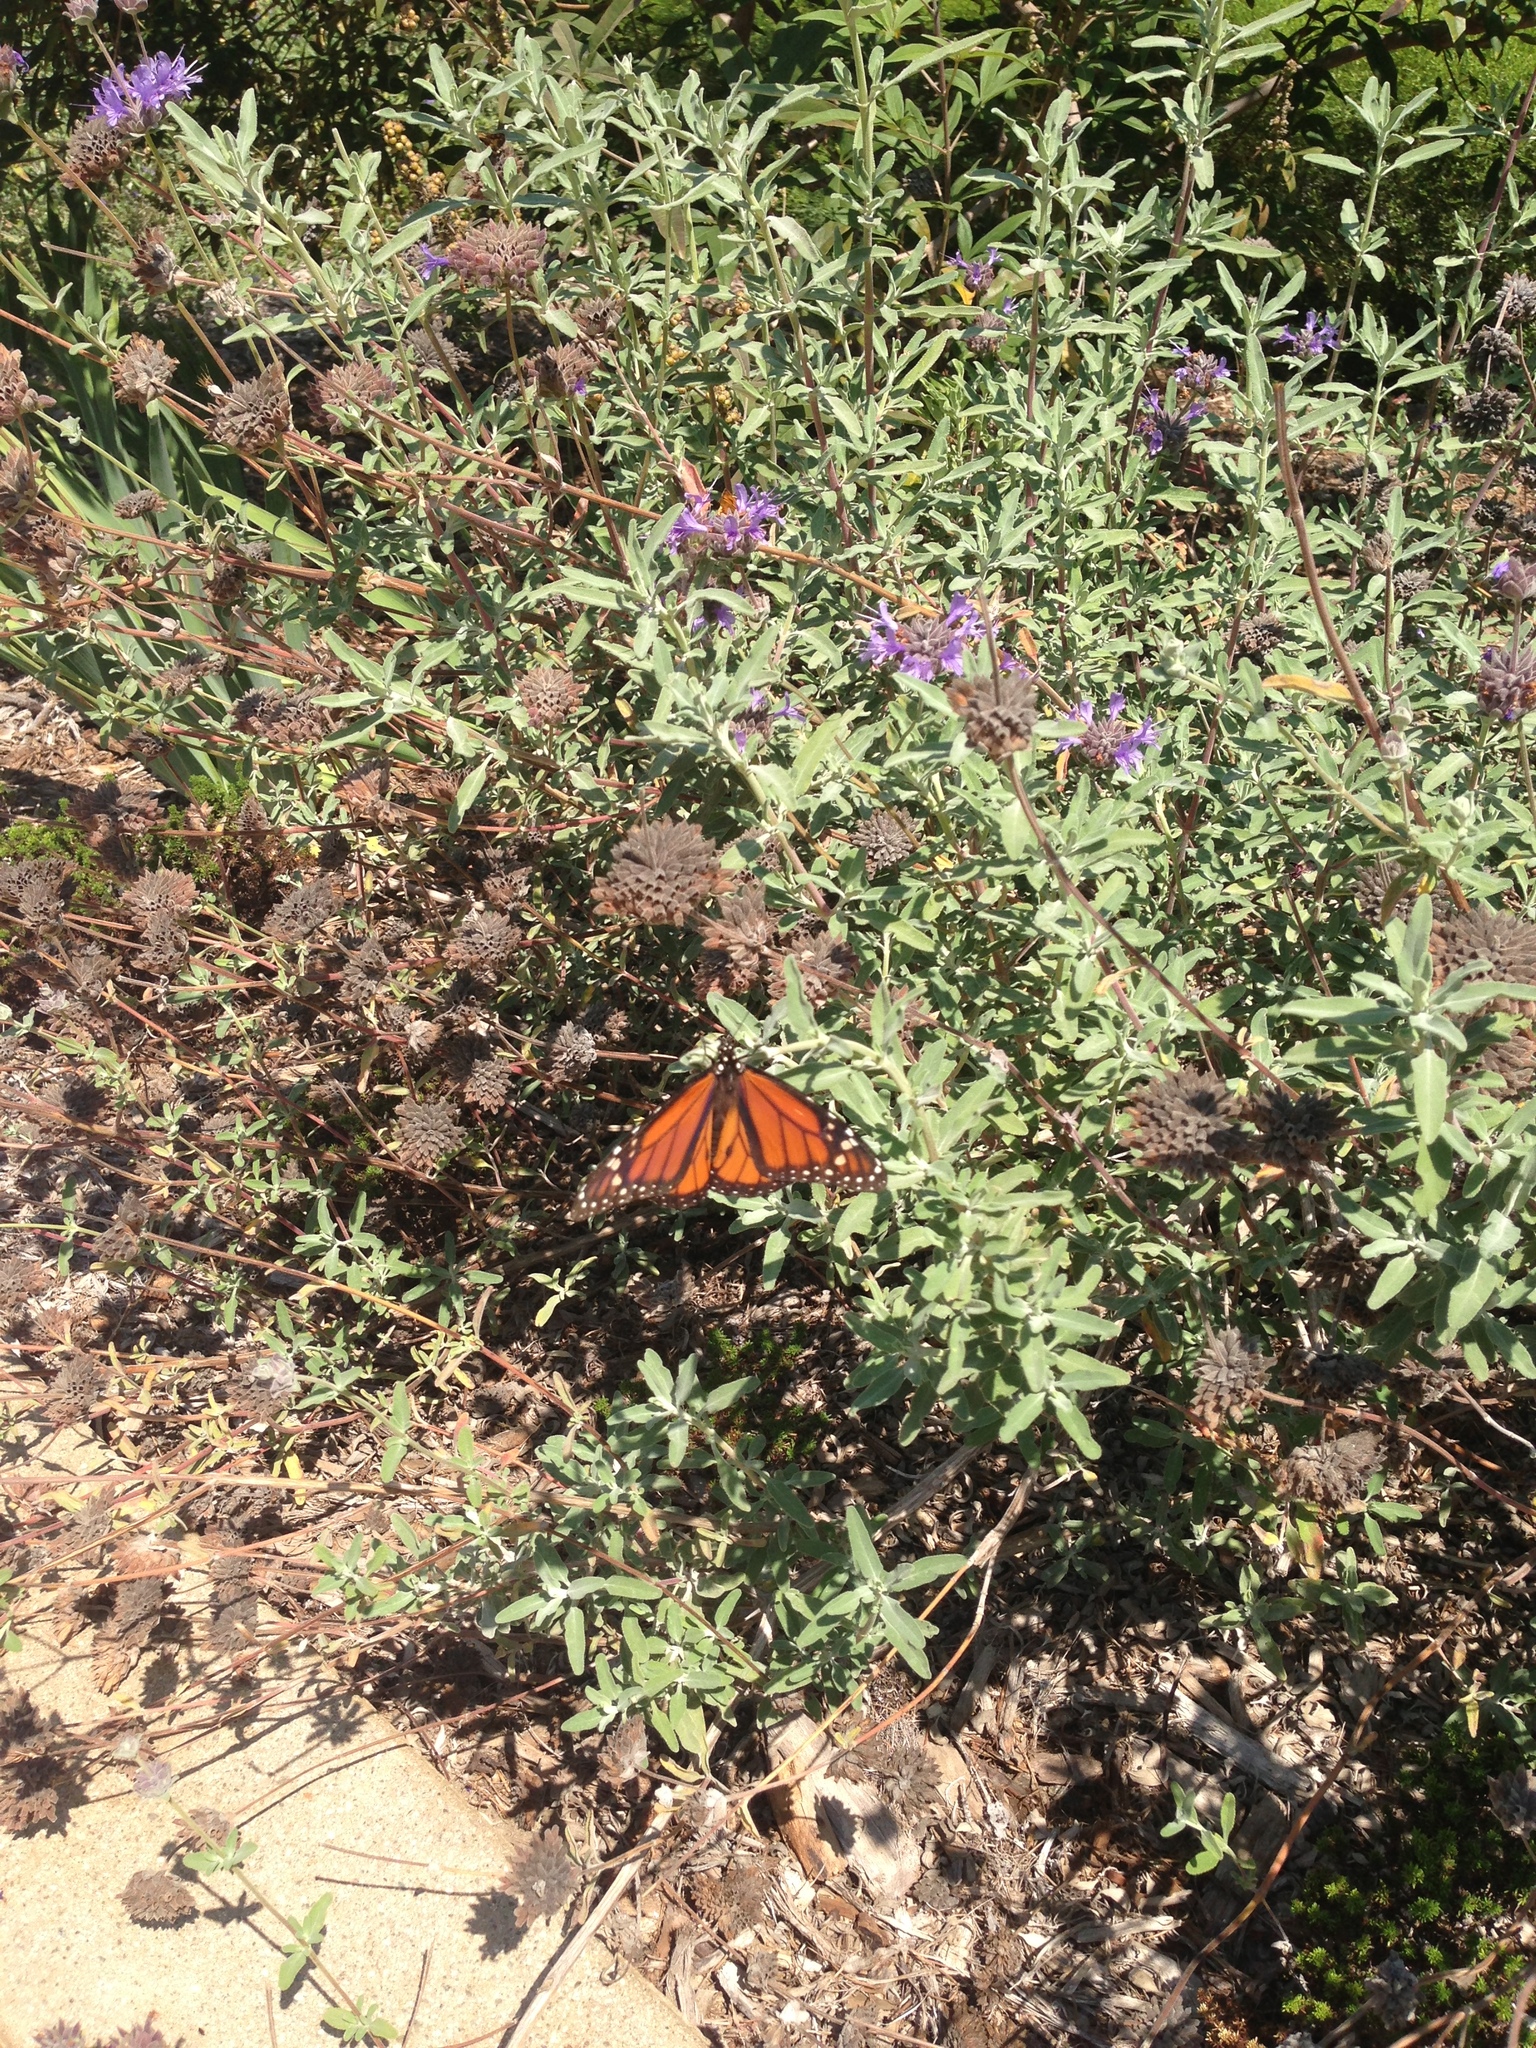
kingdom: Animalia
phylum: Arthropoda
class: Insecta
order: Lepidoptera
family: Nymphalidae
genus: Danaus
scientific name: Danaus plexippus
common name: Monarch
